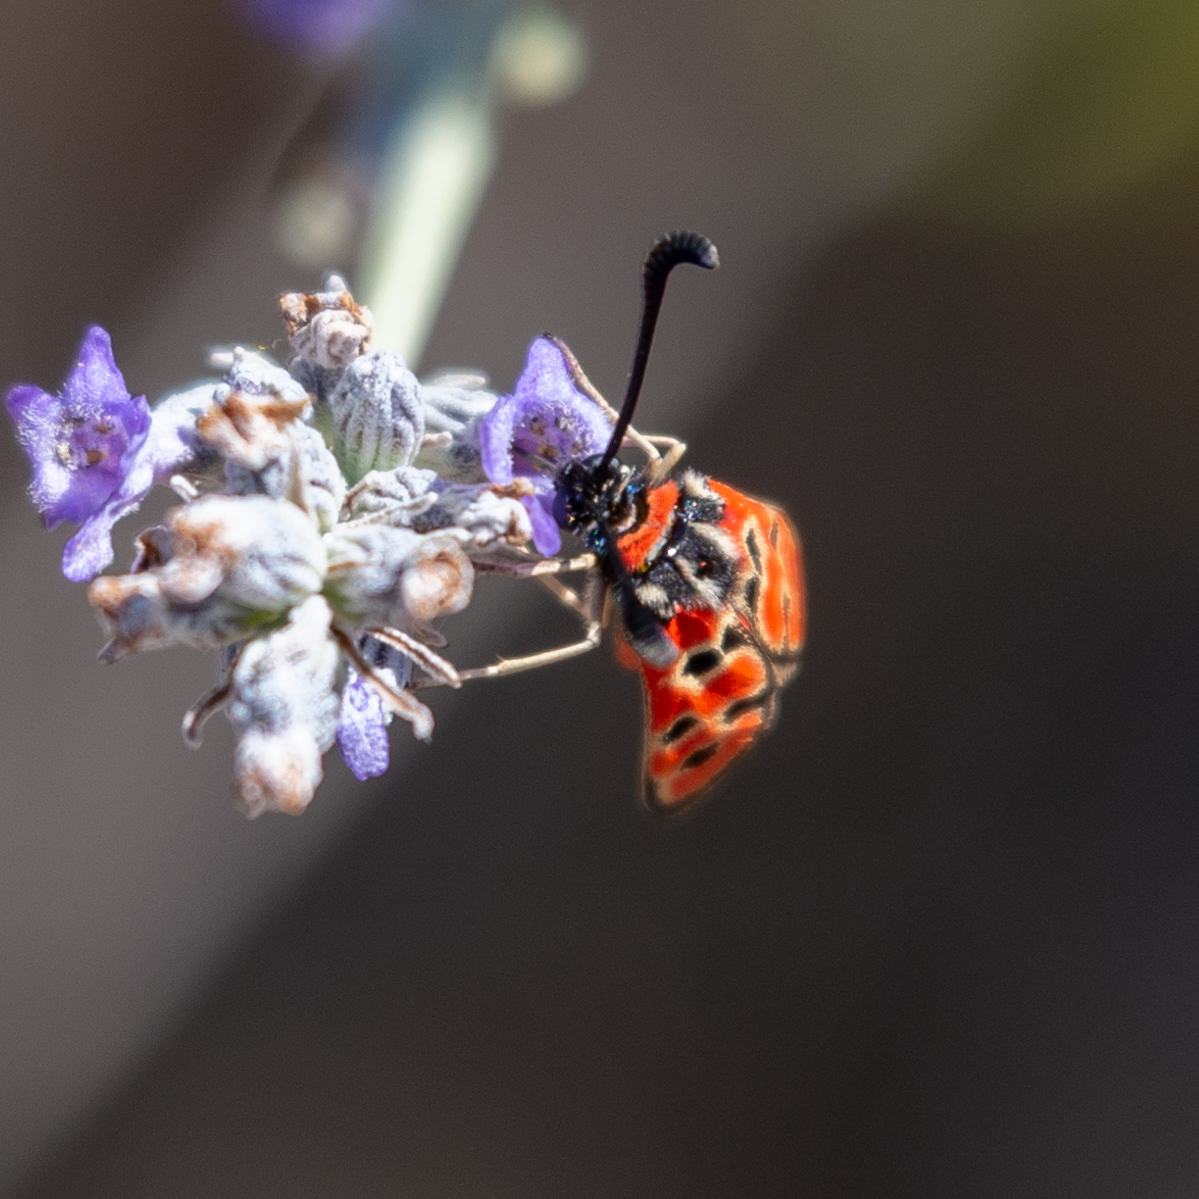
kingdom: Animalia
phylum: Arthropoda
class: Insecta
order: Lepidoptera
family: Zygaenidae
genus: Zygaena
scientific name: Zygaena fausta
